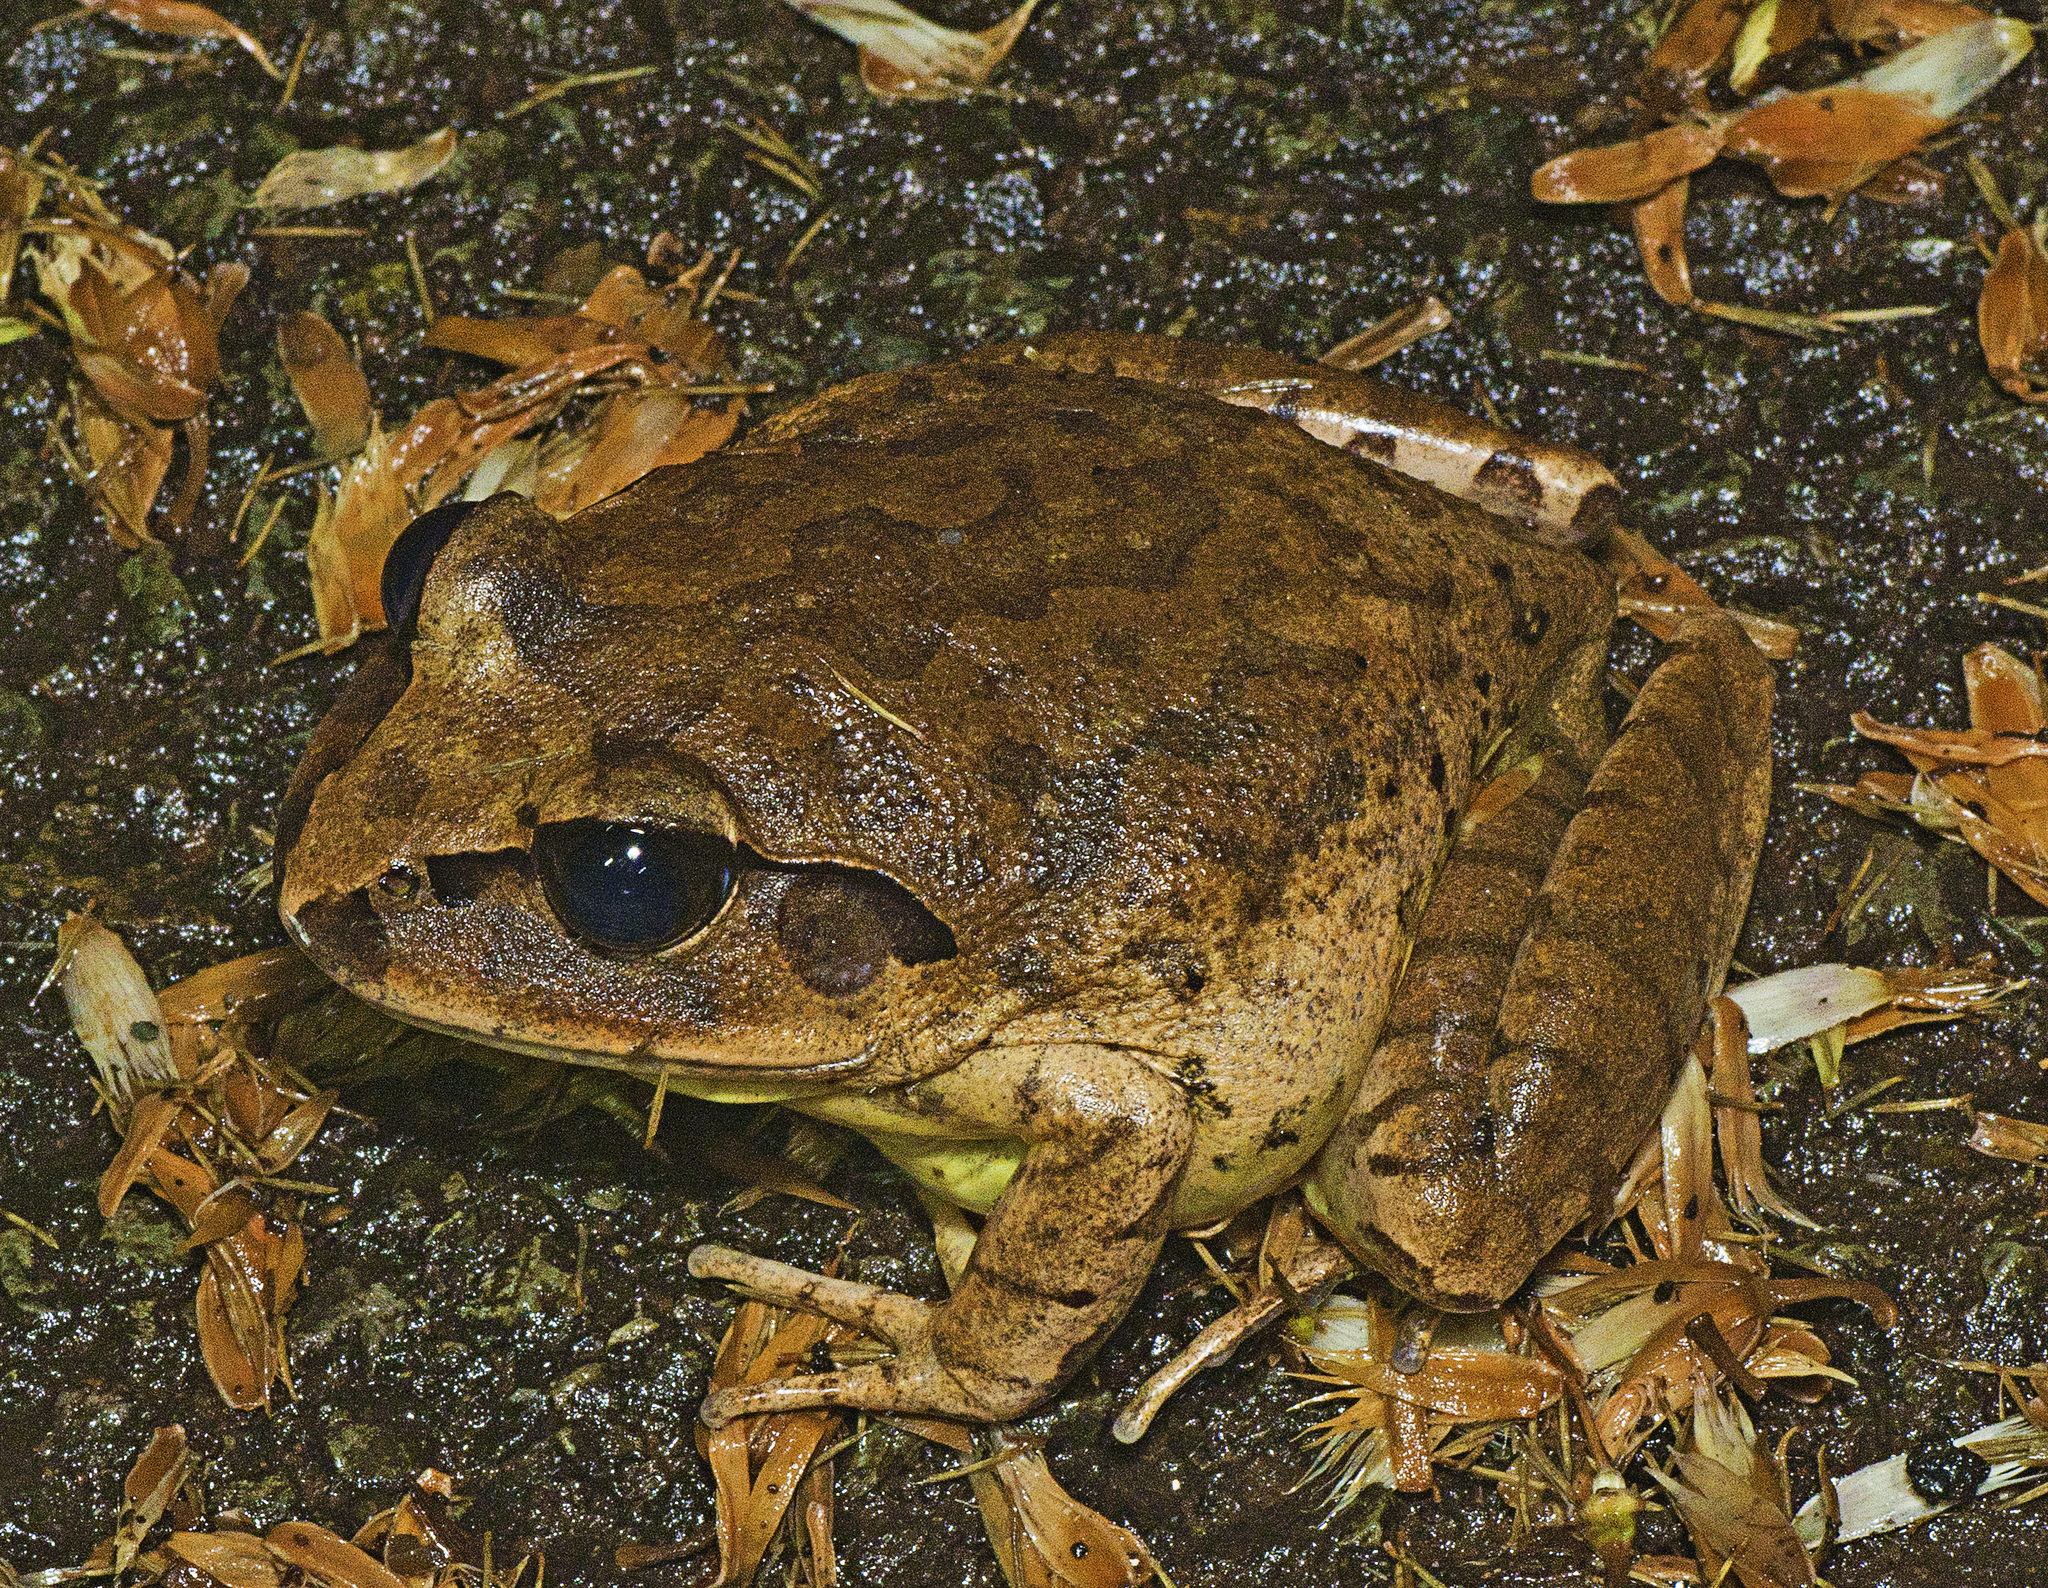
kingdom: Animalia
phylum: Chordata
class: Amphibia
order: Anura
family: Myobatrachidae
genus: Mixophyes
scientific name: Mixophyes fasciolatus
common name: Great barred river-frog
